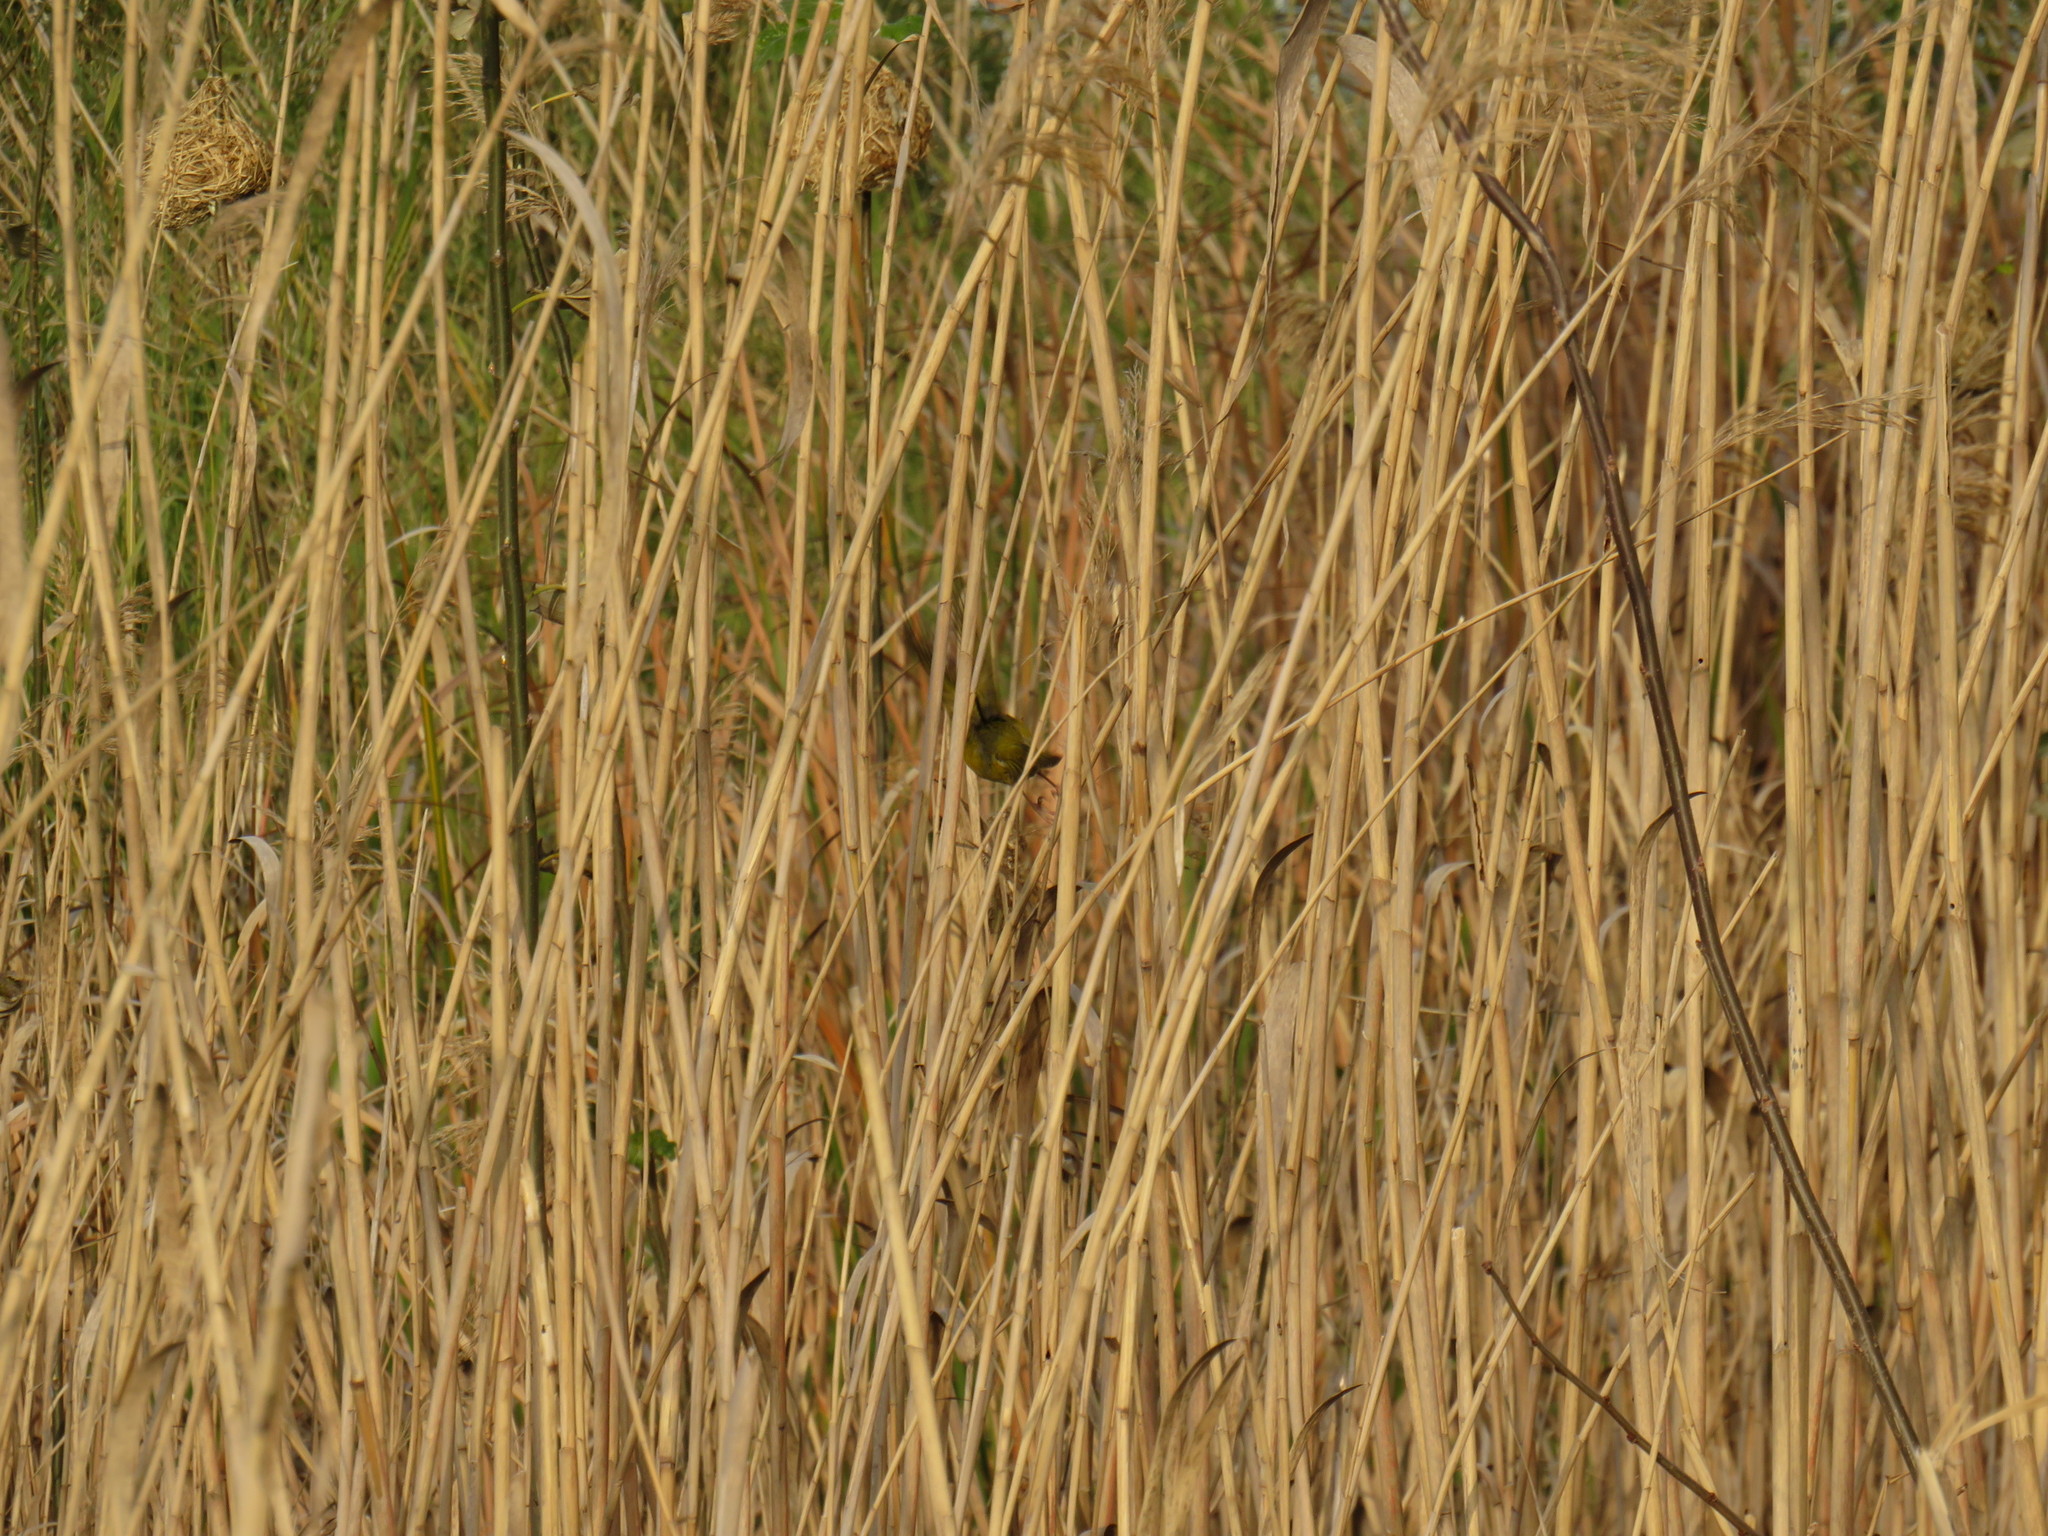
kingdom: Plantae
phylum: Tracheophyta
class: Liliopsida
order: Poales
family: Poaceae
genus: Phragmites
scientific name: Phragmites australis
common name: Common reed
